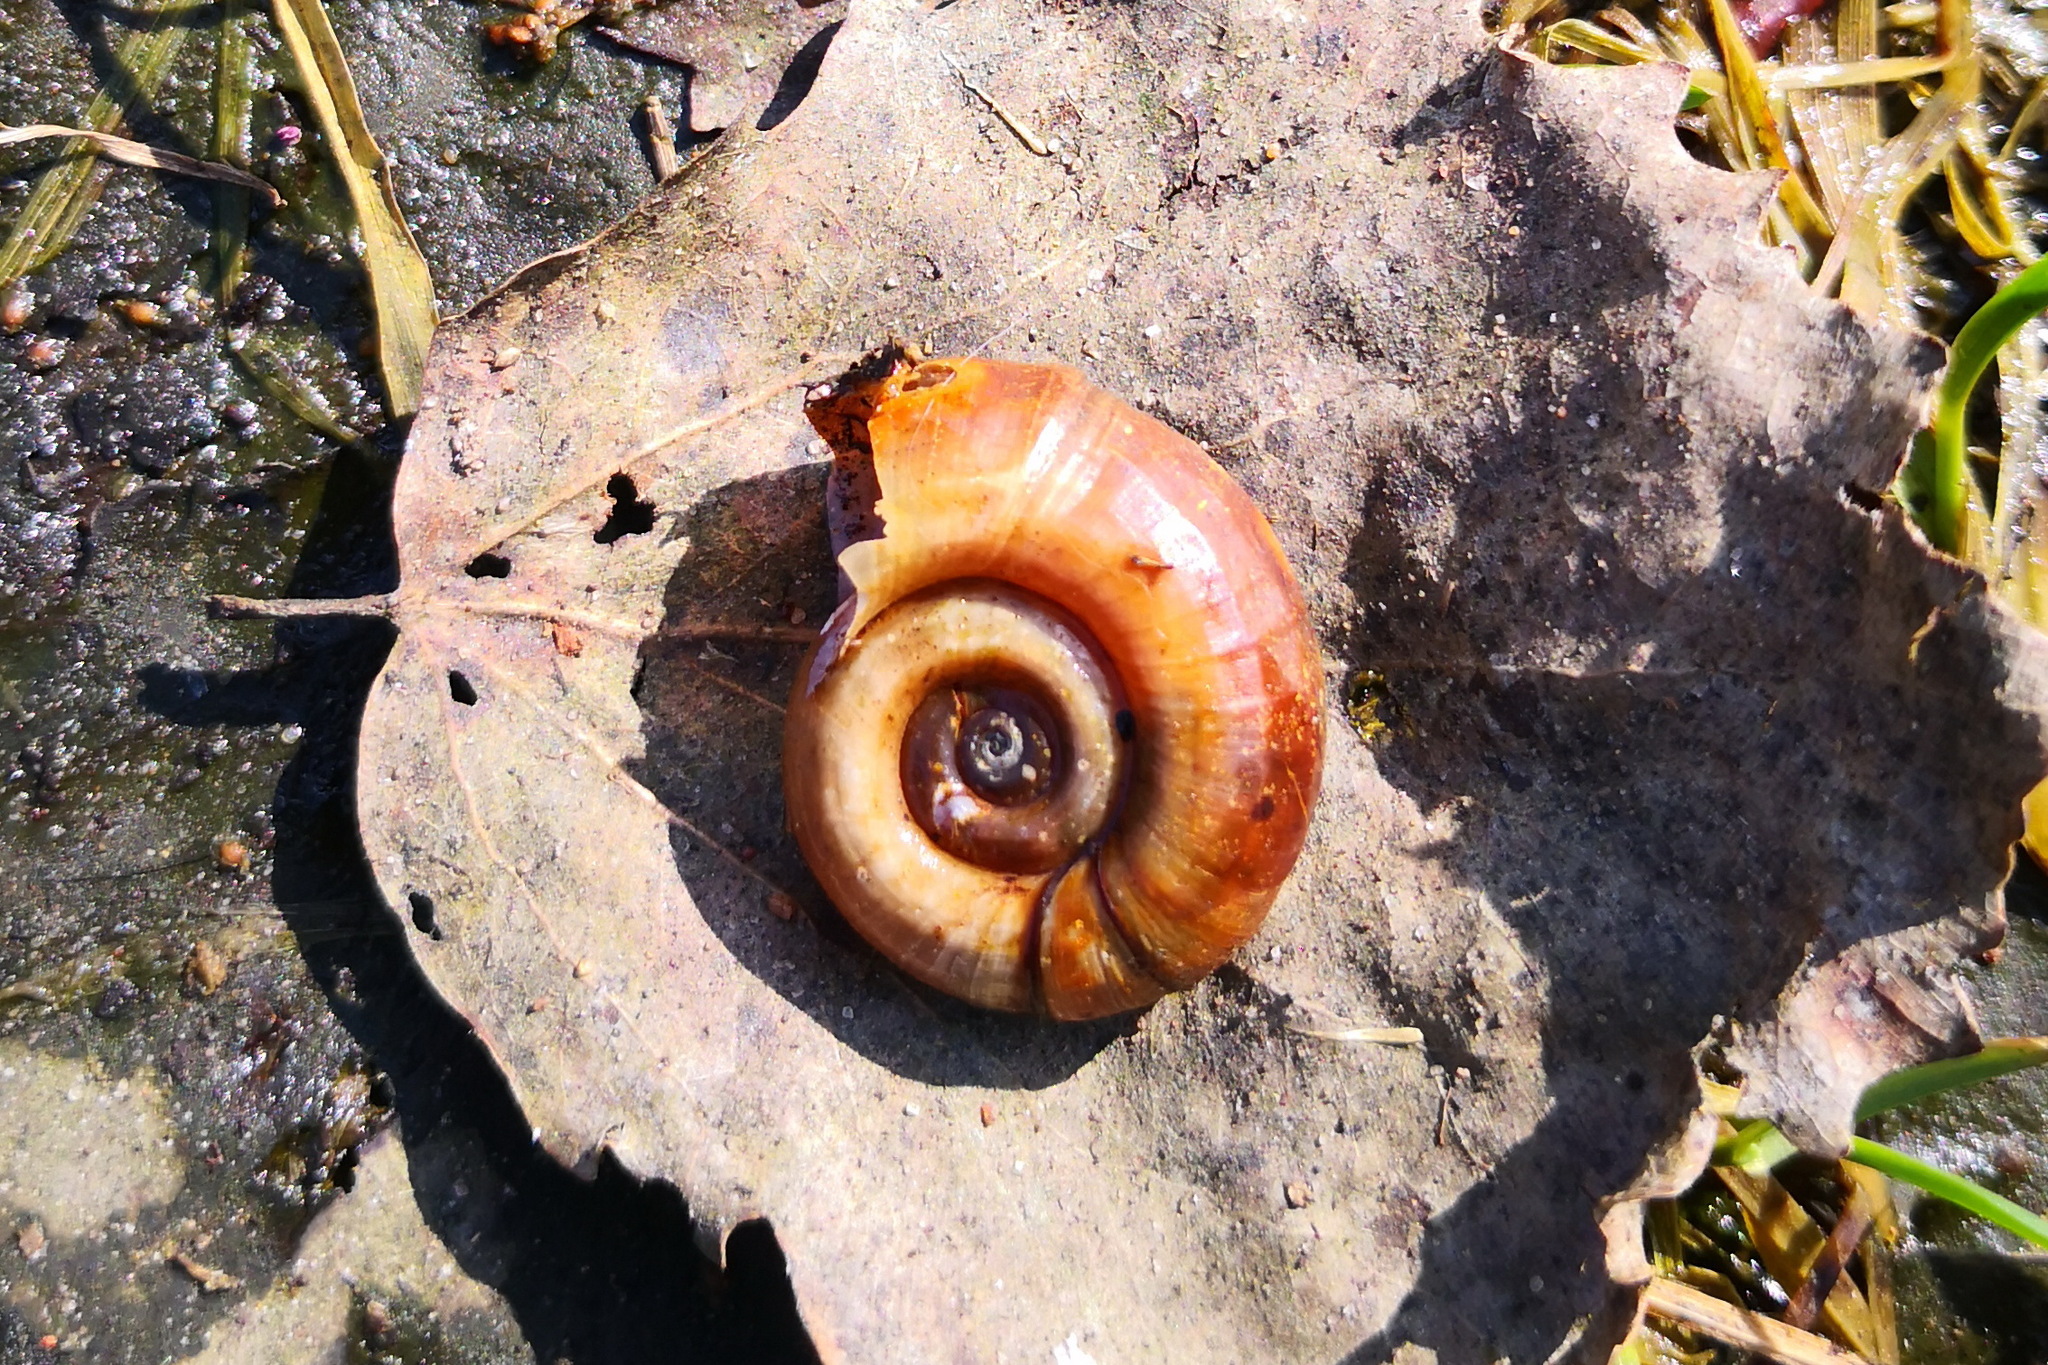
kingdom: Animalia
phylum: Mollusca
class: Gastropoda
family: Planorbidae
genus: Planorbarius
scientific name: Planorbarius corneus
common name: Great ramshorn
